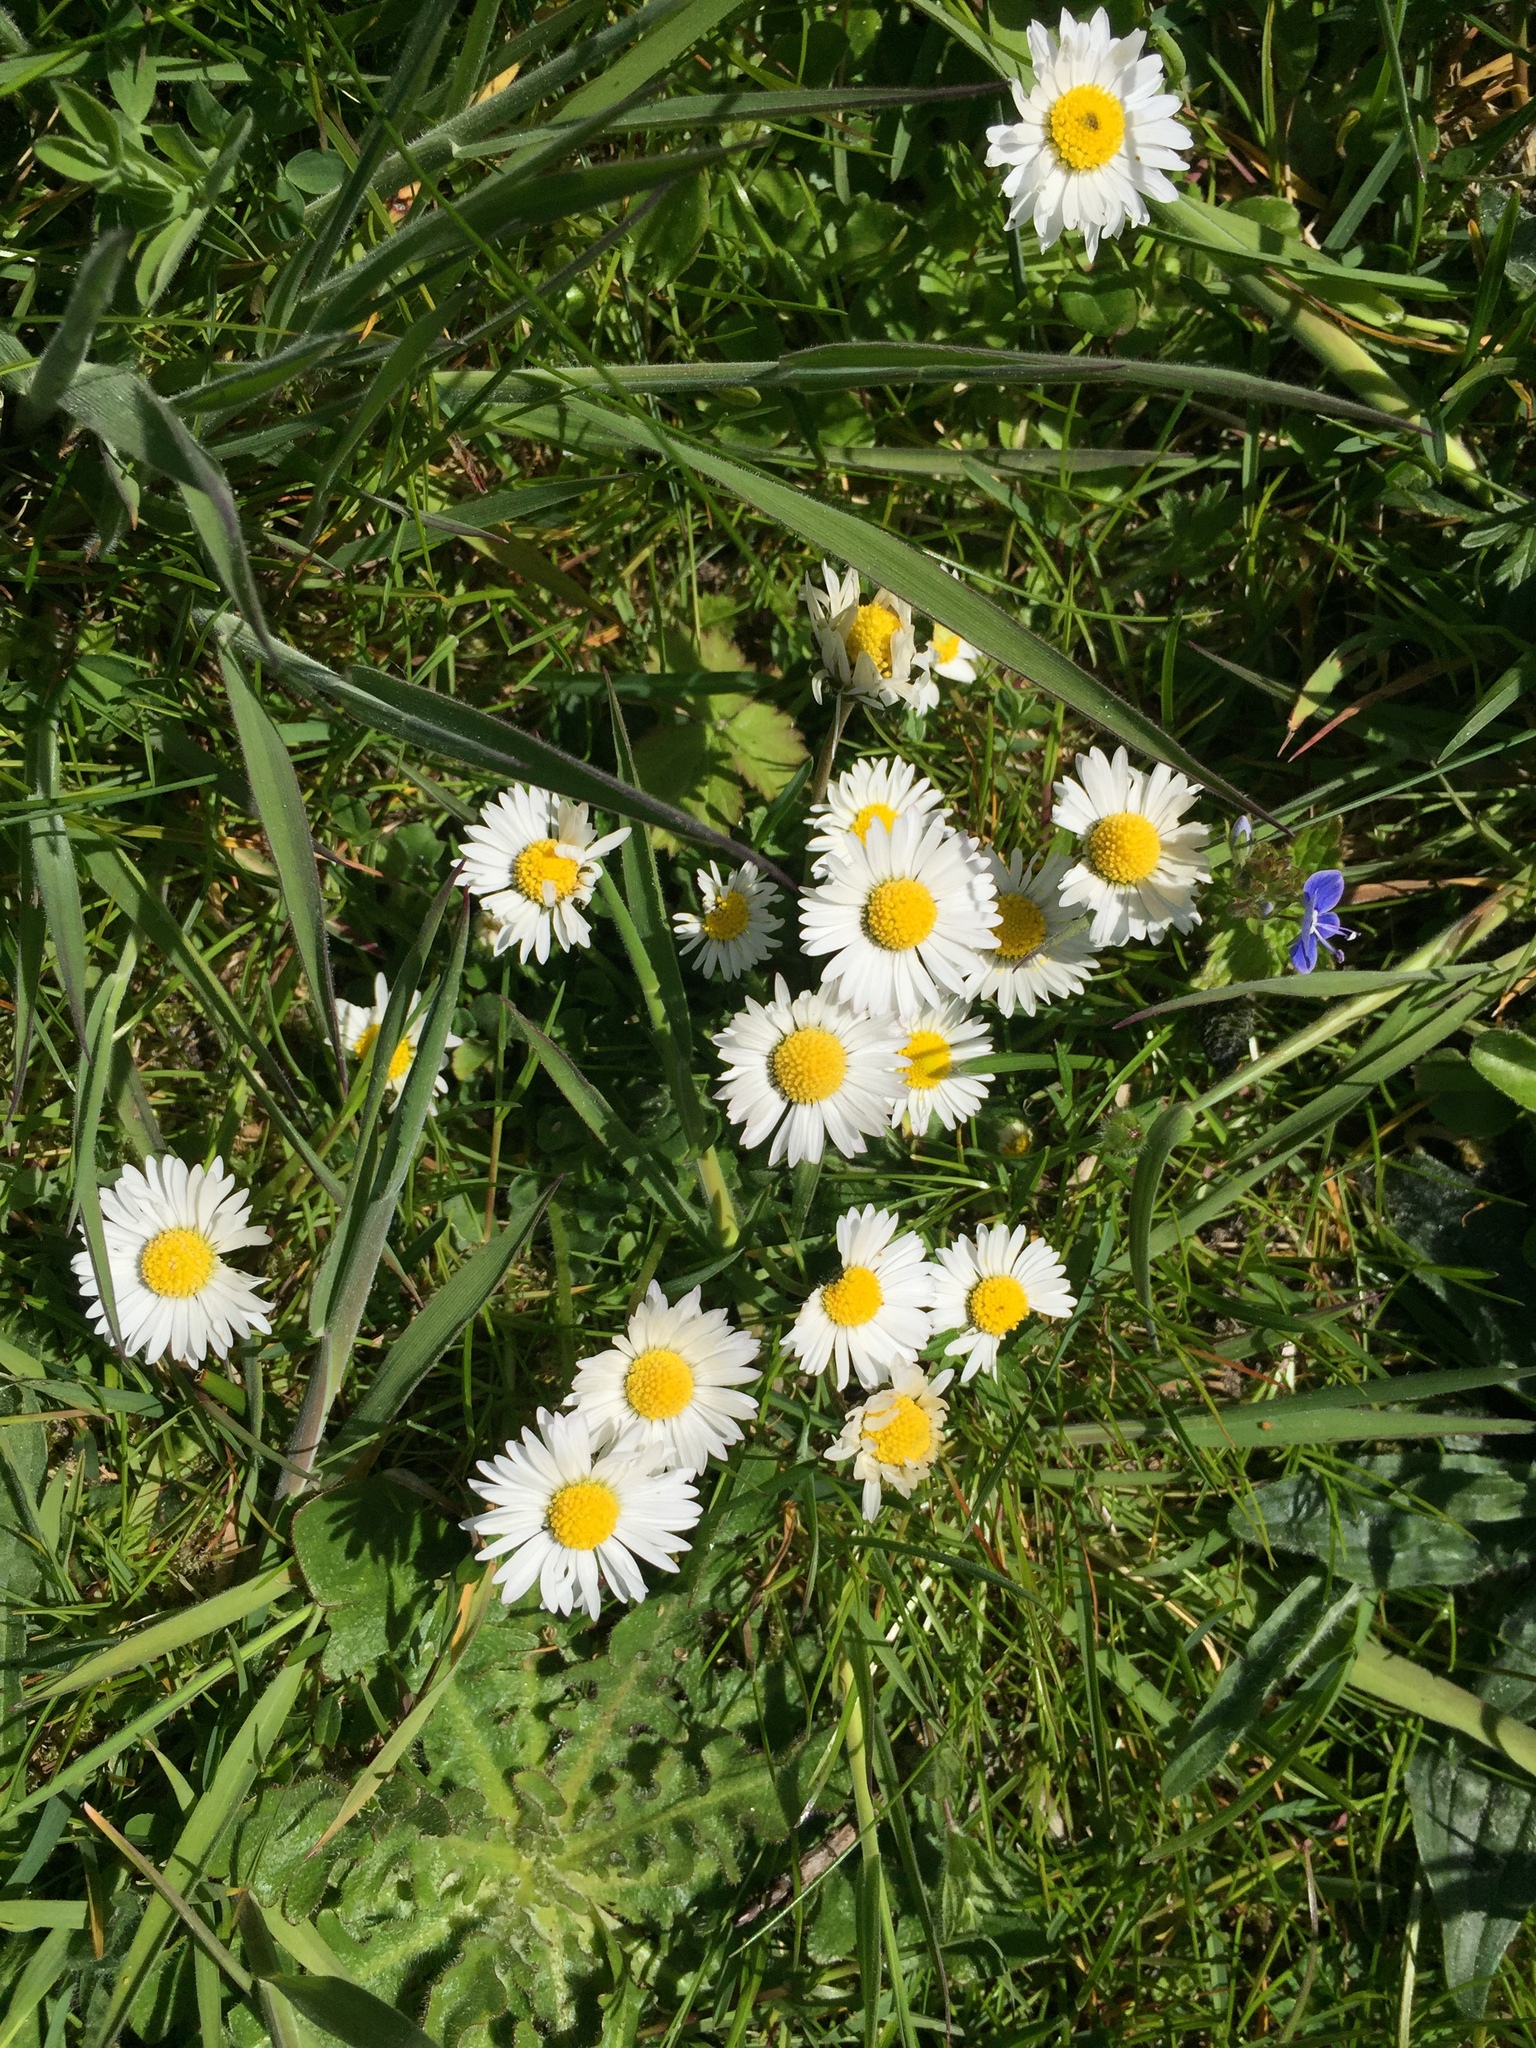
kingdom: Plantae
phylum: Tracheophyta
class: Magnoliopsida
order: Asterales
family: Asteraceae
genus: Bellis
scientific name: Bellis perennis
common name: Lawndaisy
